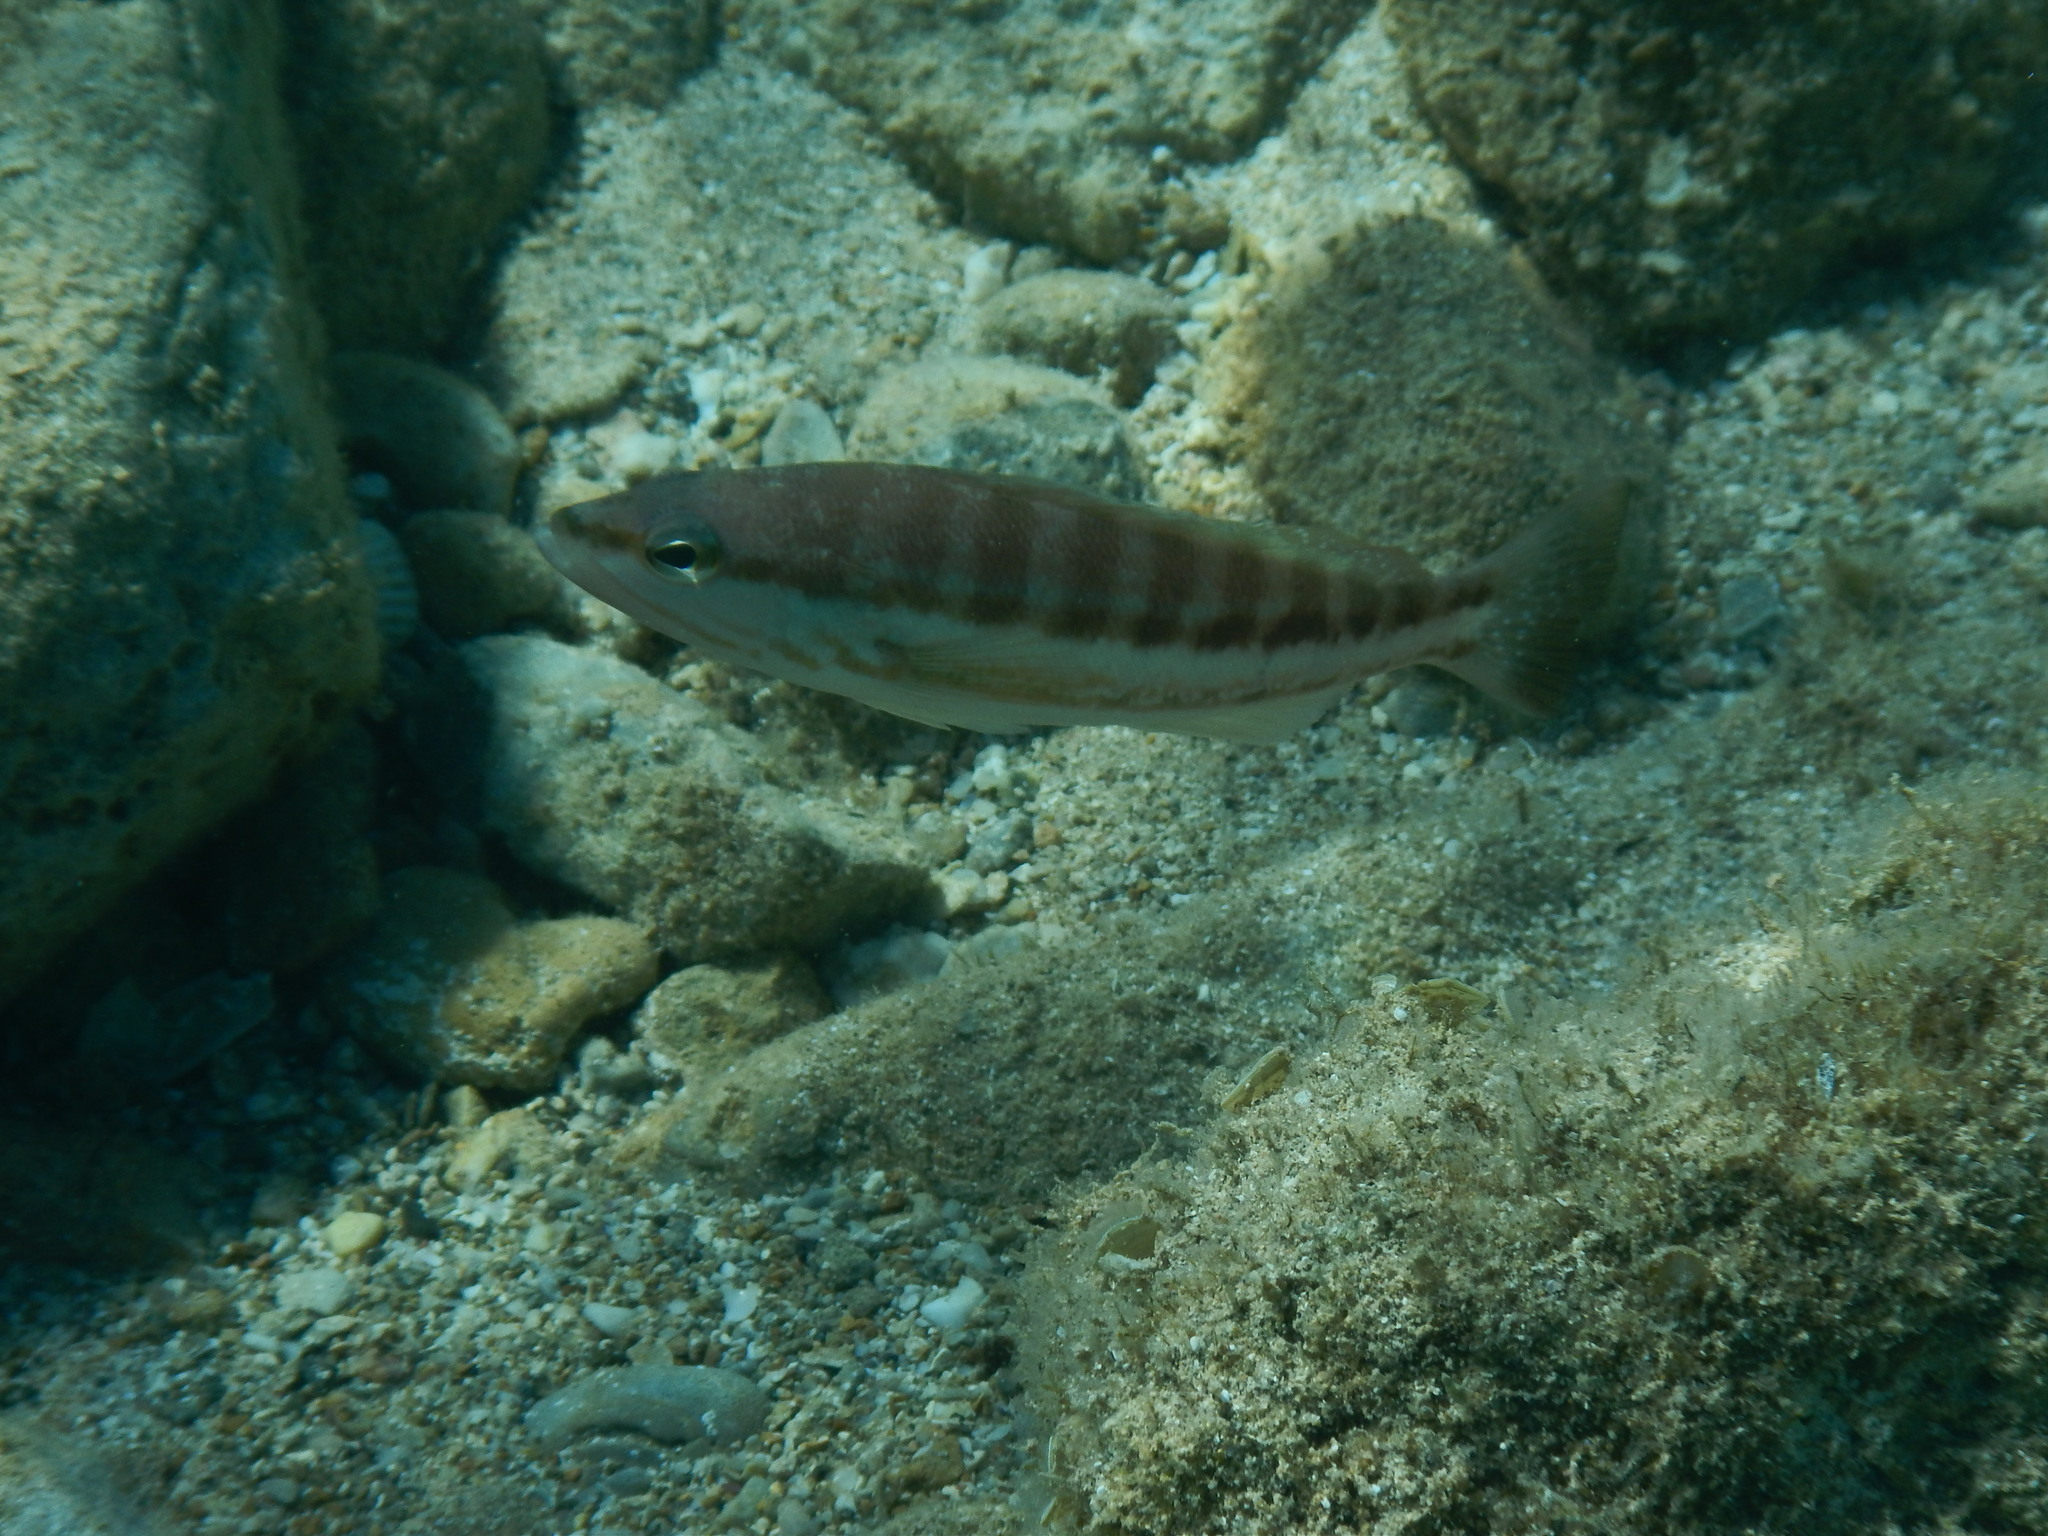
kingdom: Animalia
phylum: Chordata
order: Perciformes
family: Serranidae
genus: Serranus
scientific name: Serranus cabrilla
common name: Comber
